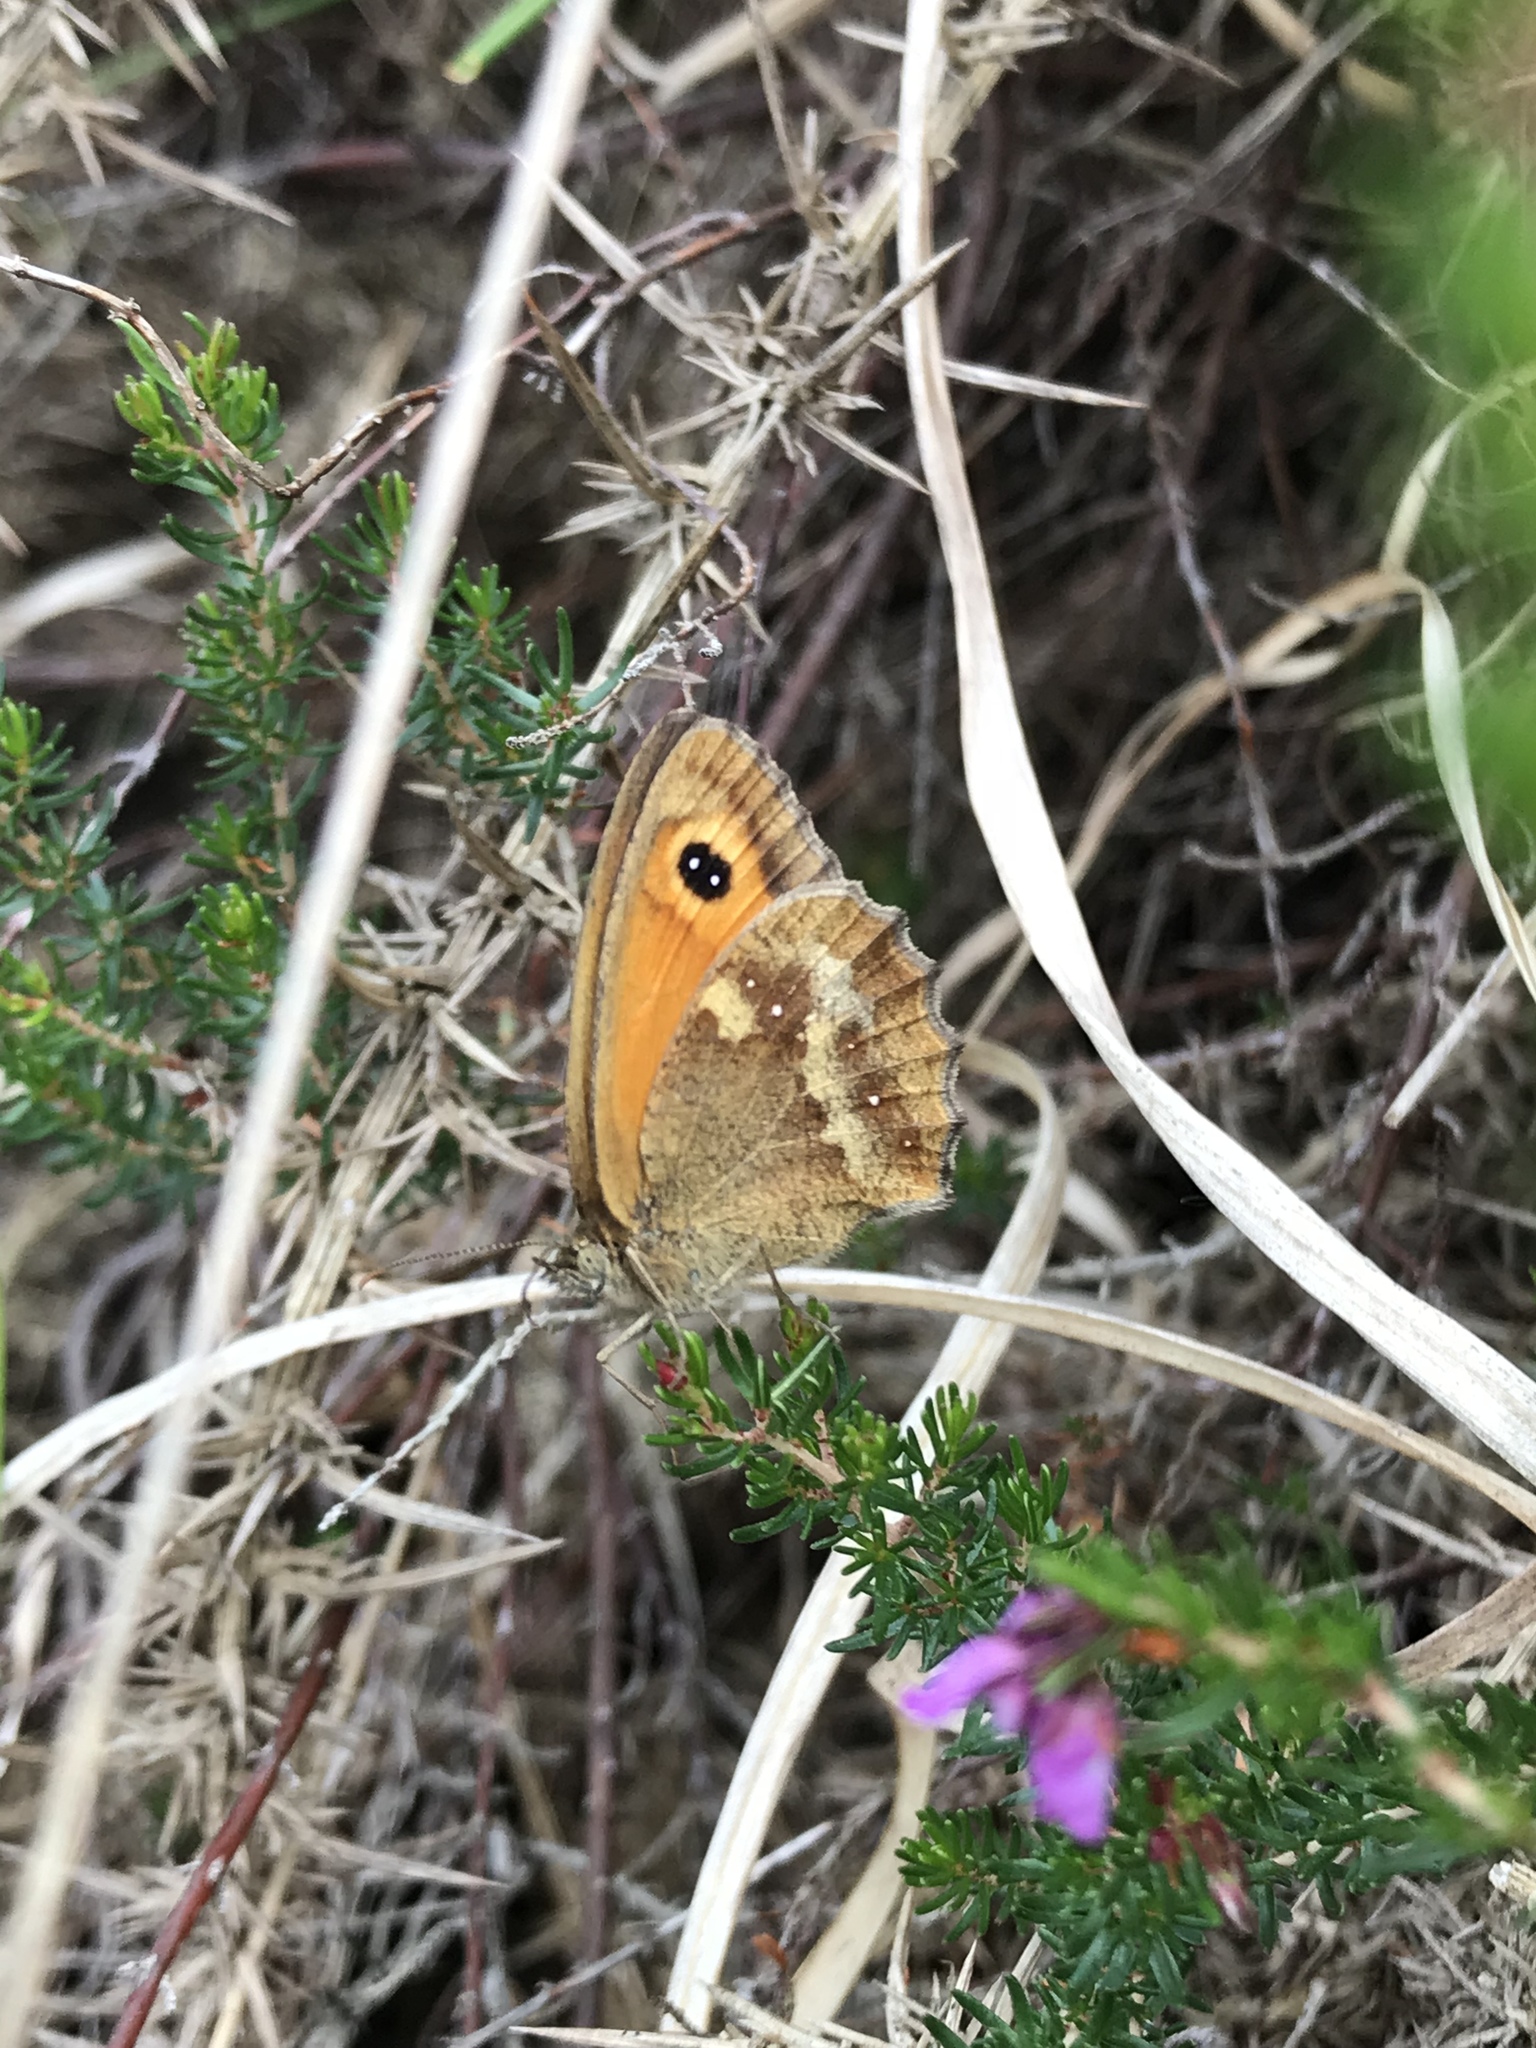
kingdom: Animalia
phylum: Arthropoda
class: Insecta
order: Lepidoptera
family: Nymphalidae
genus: Pyronia
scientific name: Pyronia tithonus
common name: Gatekeeper
